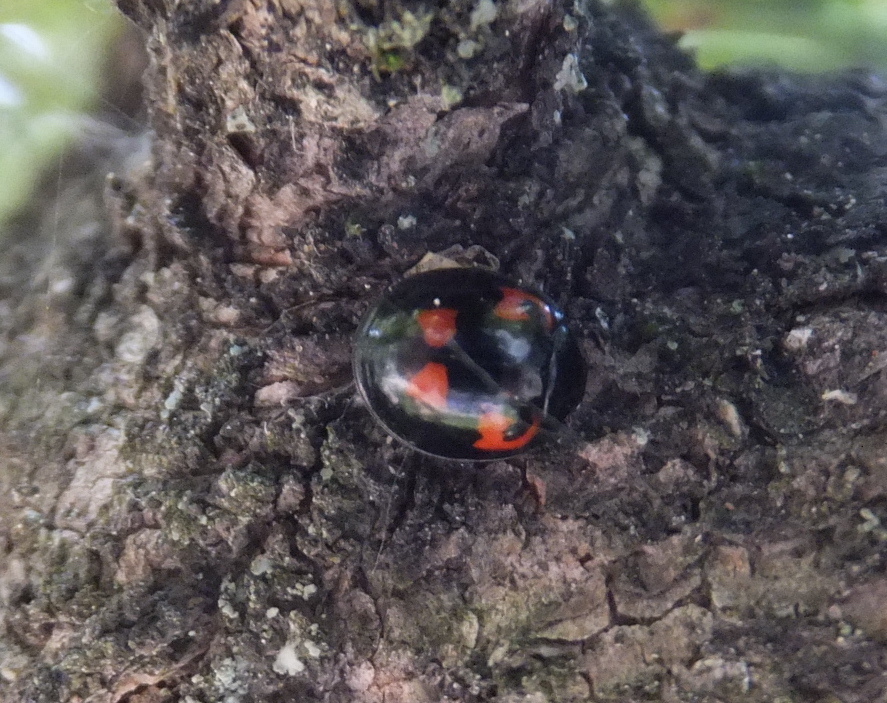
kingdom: Animalia
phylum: Arthropoda
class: Insecta
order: Coleoptera
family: Coccinellidae
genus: Brumus
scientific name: Brumus quadripustulatus
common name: Ladybird beetle
